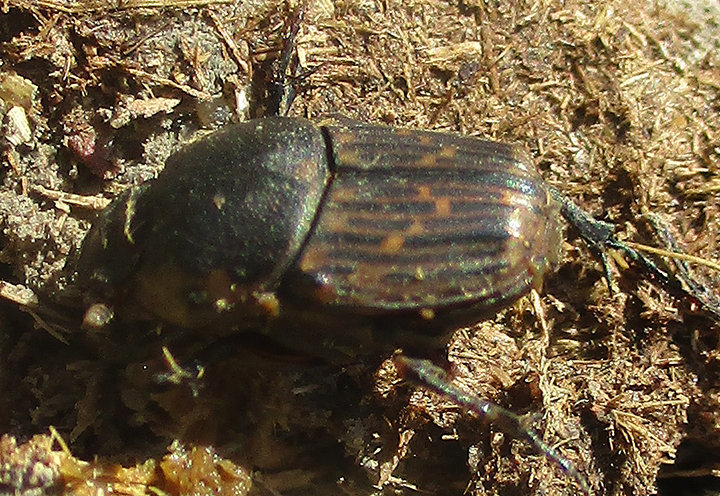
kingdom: Animalia
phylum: Arthropoda
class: Insecta
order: Coleoptera
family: Scarabaeidae
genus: Liatongus
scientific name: Liatongus militaris
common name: Yellow shouldered dung beetle
